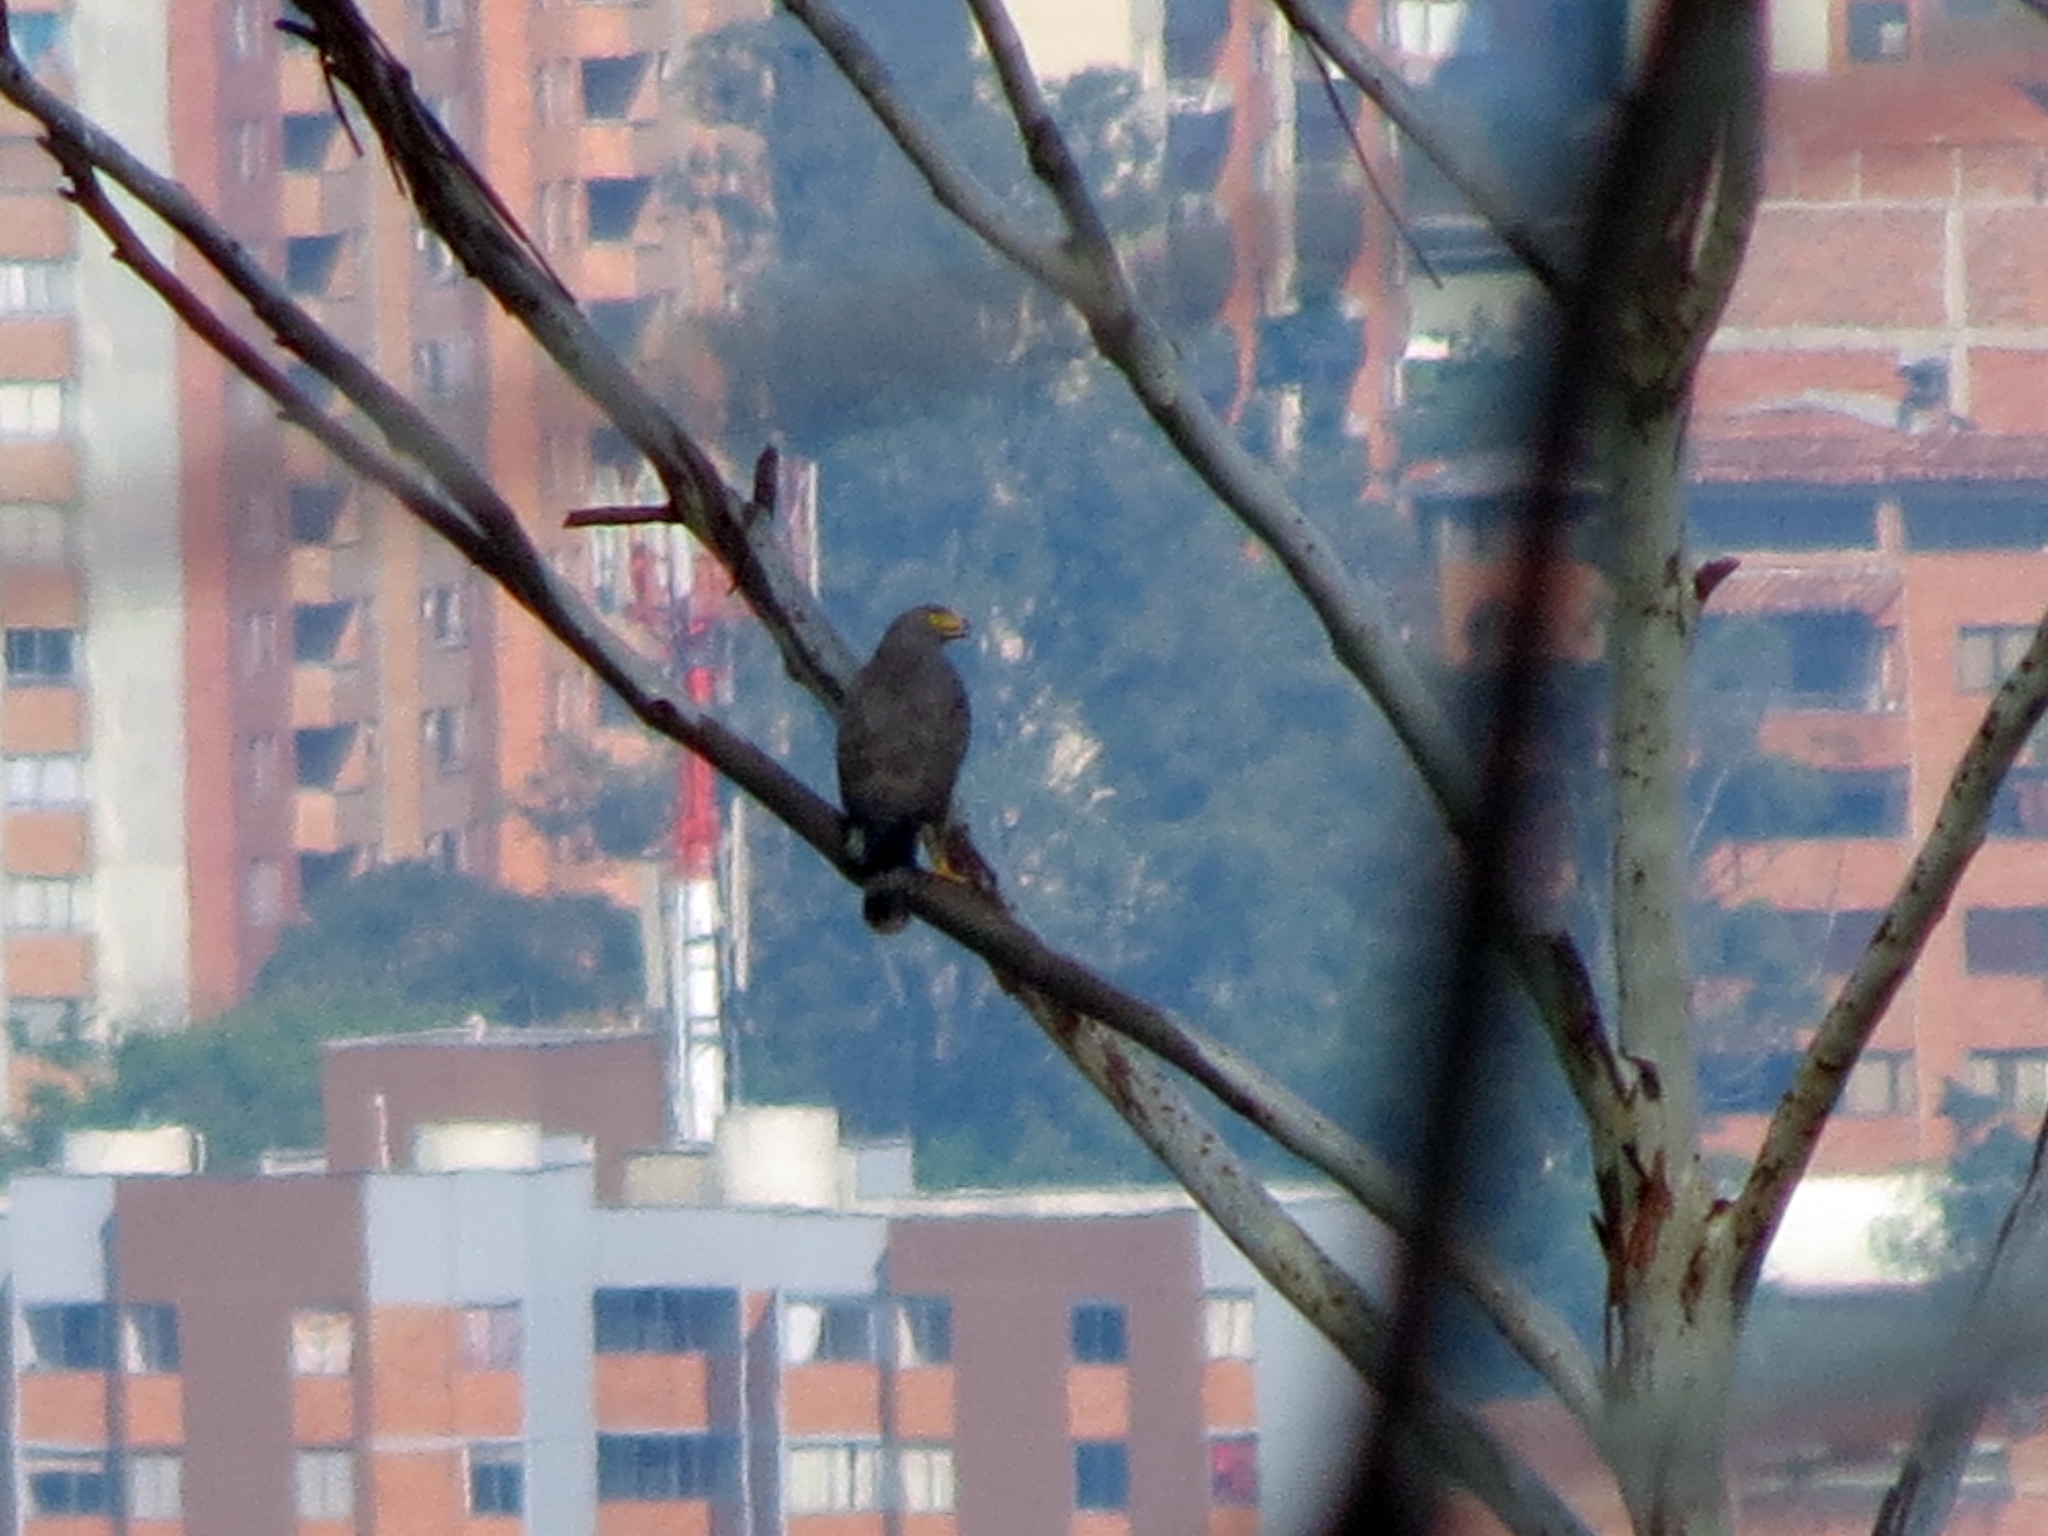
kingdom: Animalia
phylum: Chordata
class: Aves
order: Accipitriformes
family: Accipitridae
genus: Rupornis
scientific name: Rupornis magnirostris
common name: Roadside hawk
